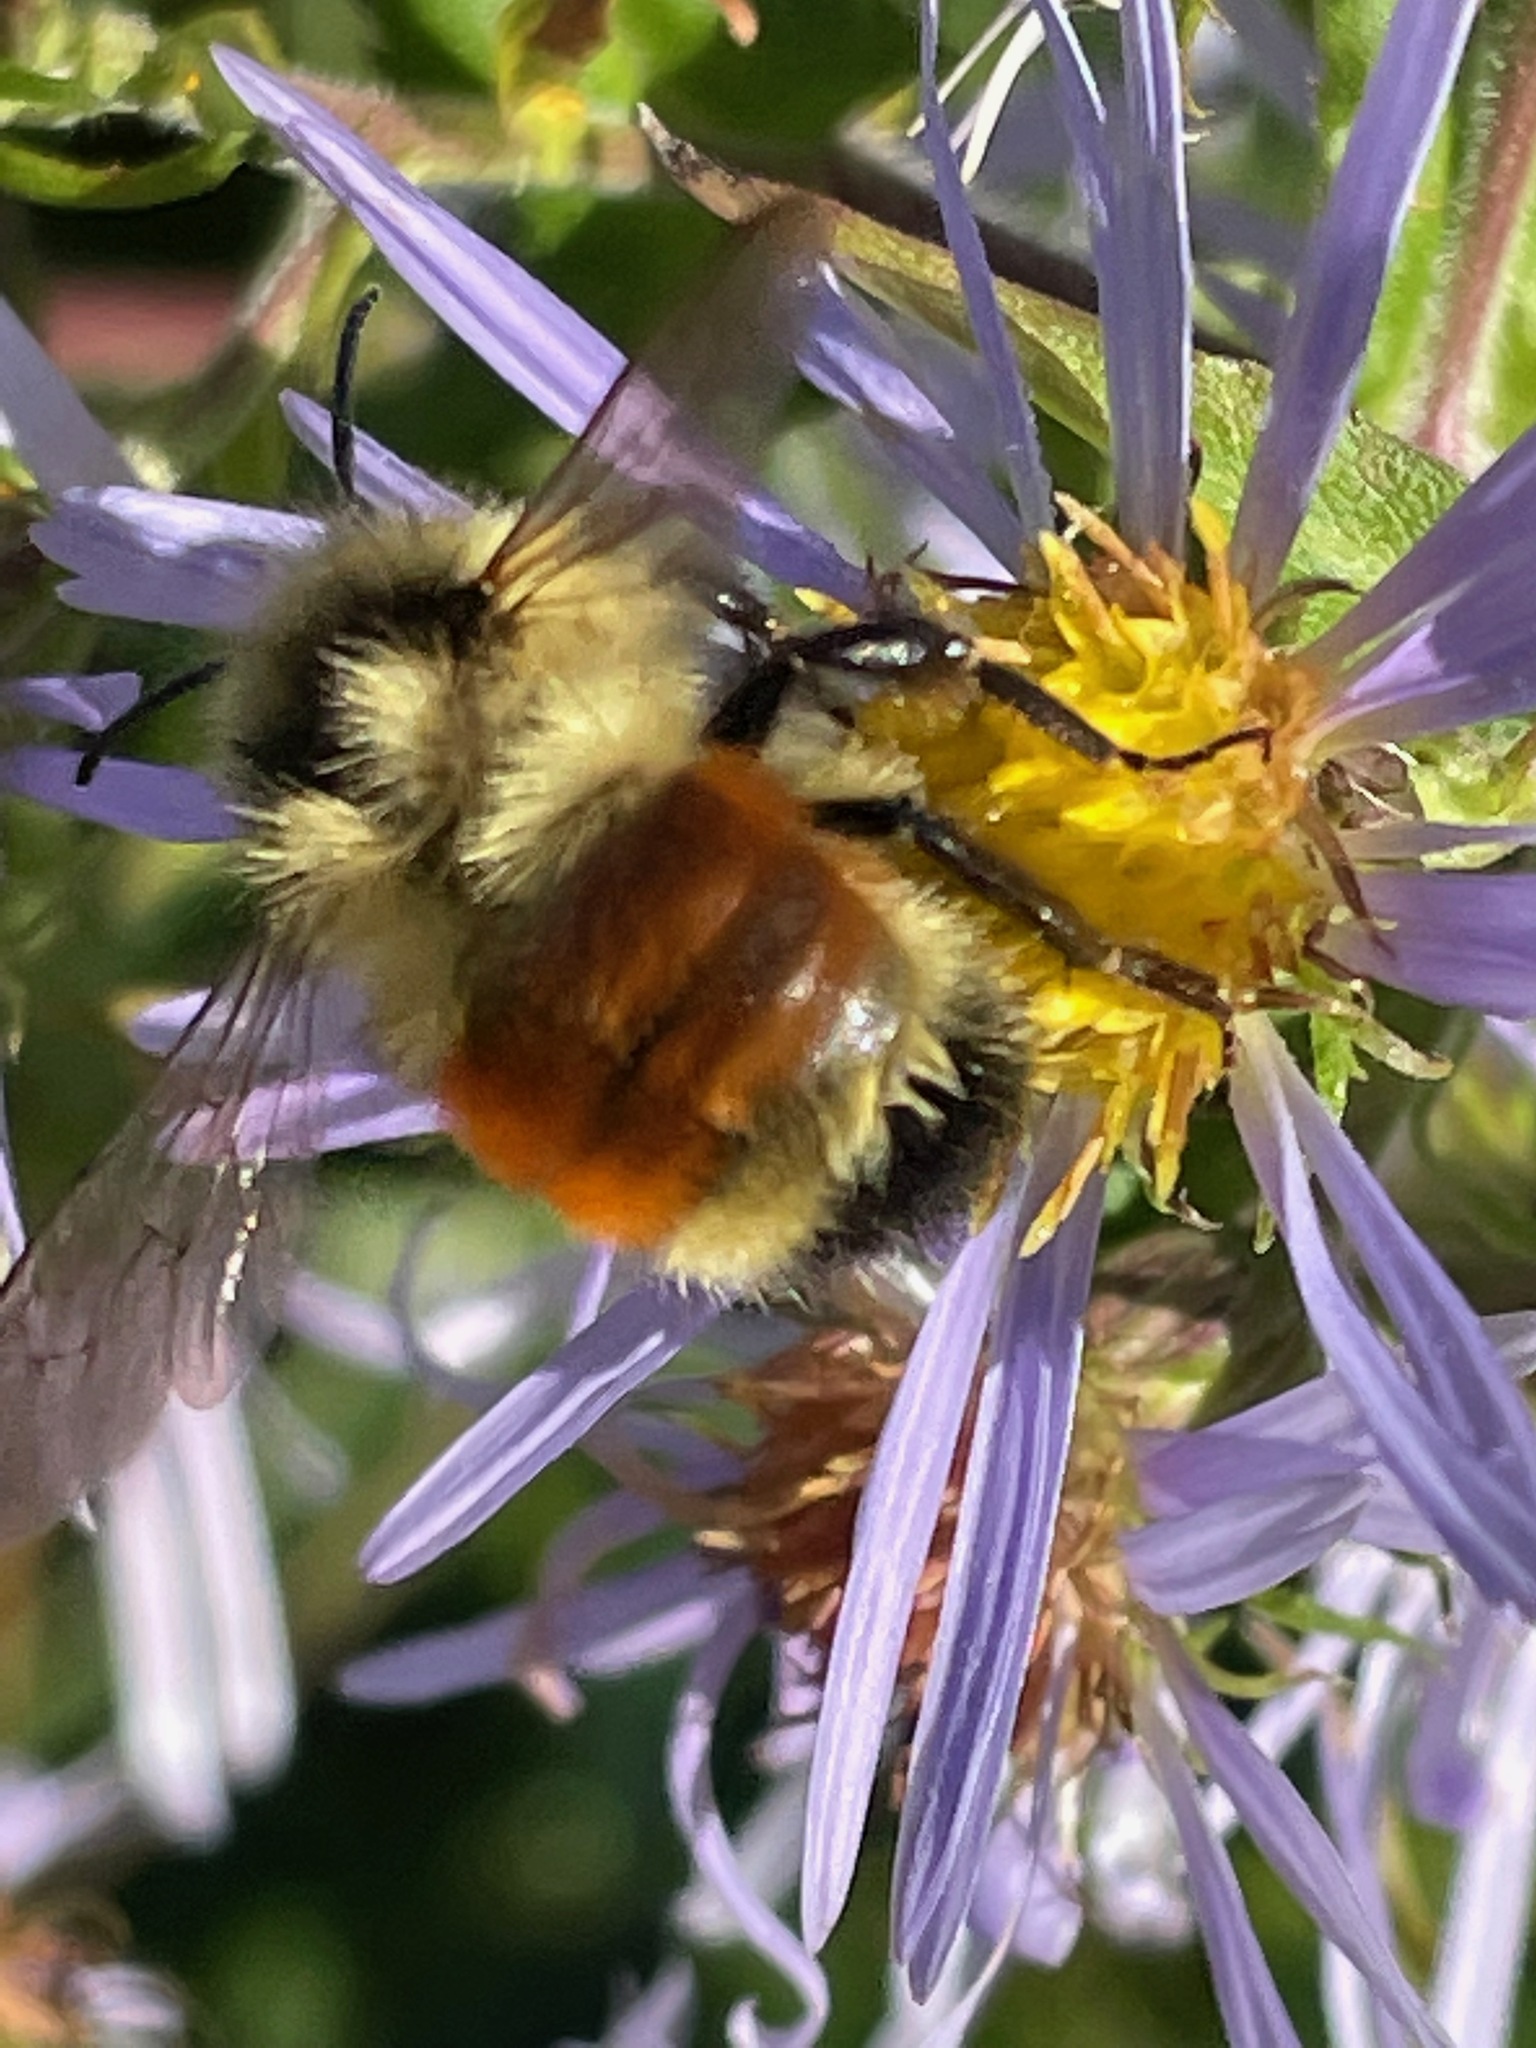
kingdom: Animalia
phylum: Arthropoda
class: Insecta
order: Hymenoptera
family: Apidae
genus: Bombus
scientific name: Bombus ternarius
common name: Tri-colored bumble bee
